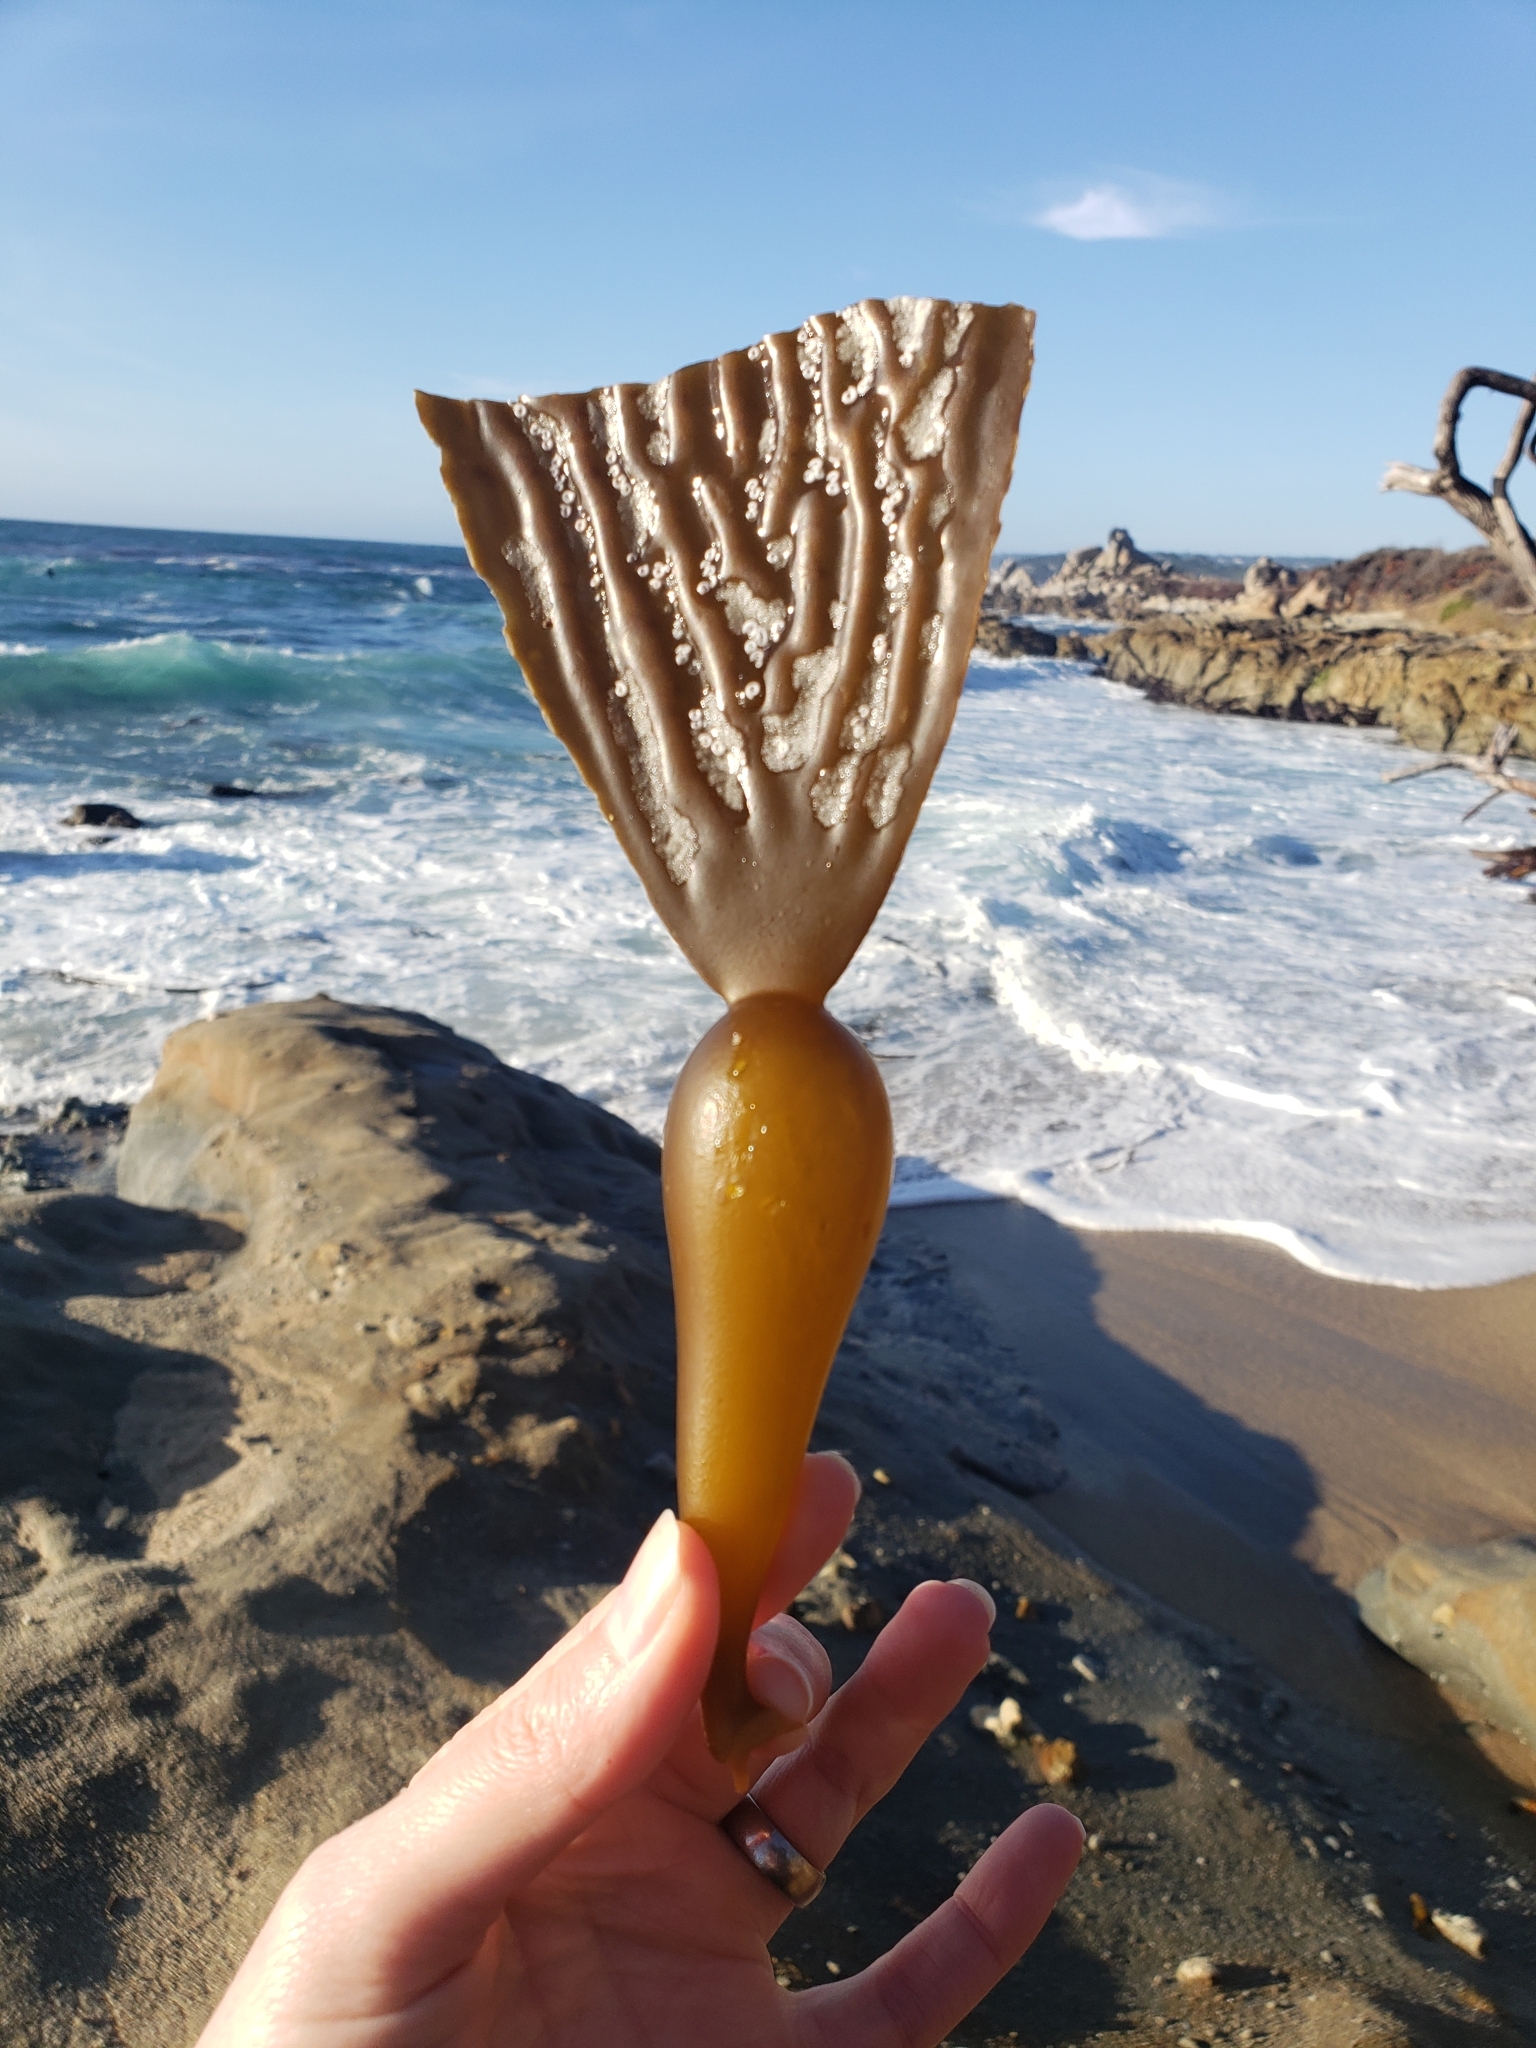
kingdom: Chromista
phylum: Ochrophyta
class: Phaeophyceae
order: Laminariales
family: Laminariaceae
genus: Macrocystis
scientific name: Macrocystis pyrifera
